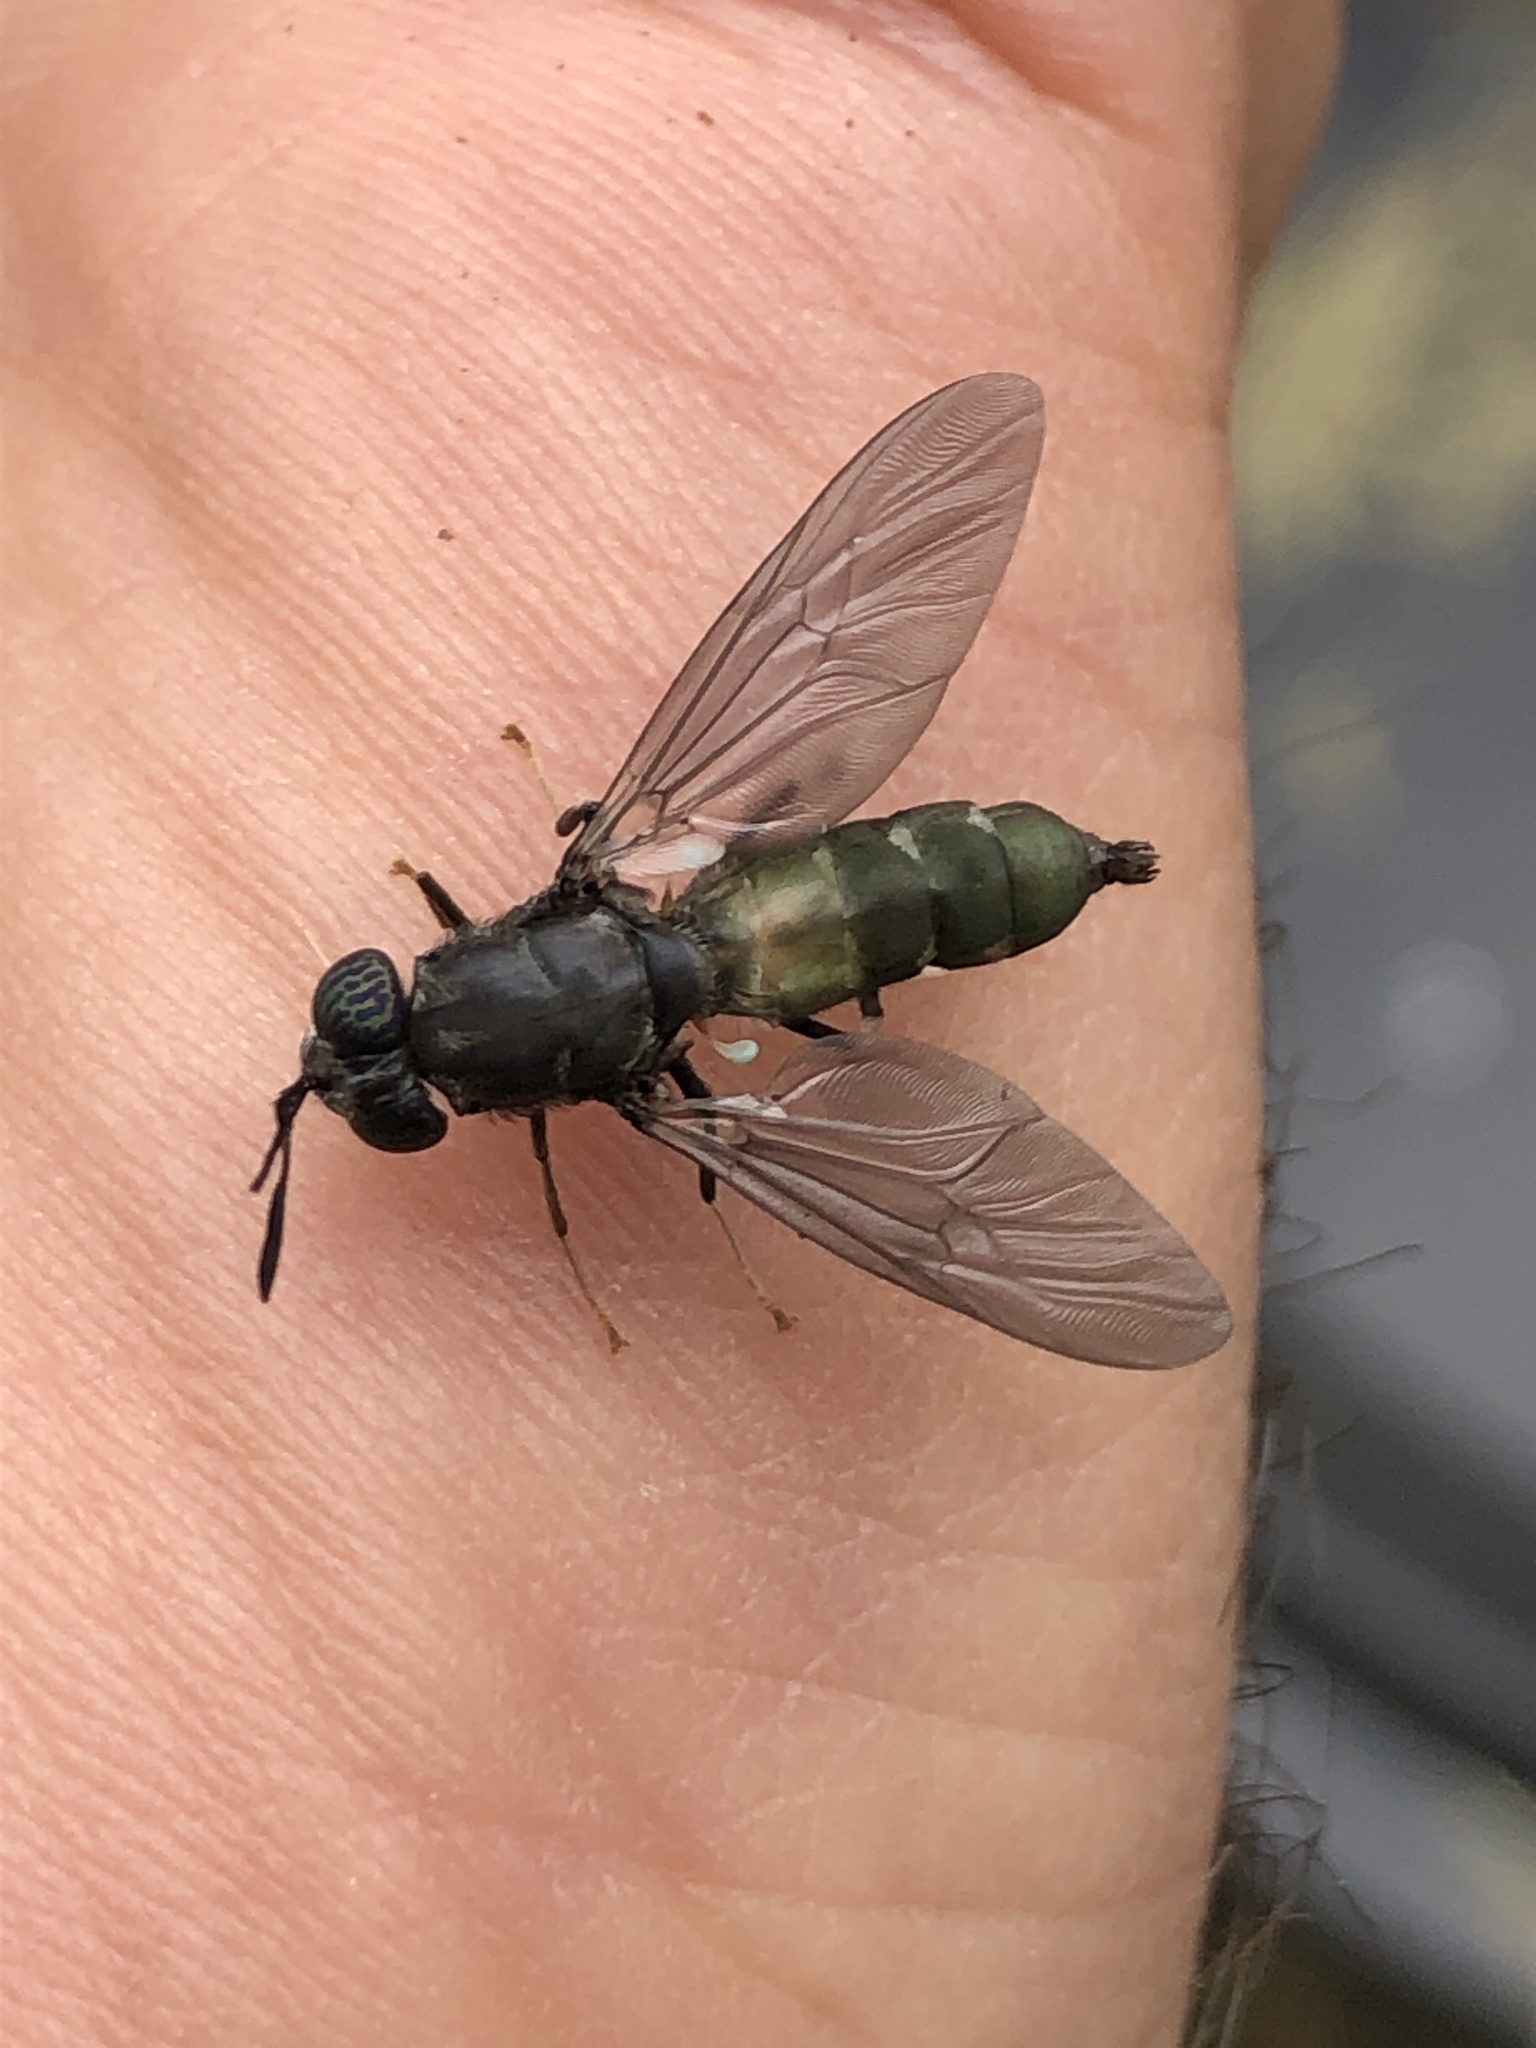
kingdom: Animalia
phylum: Arthropoda
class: Insecta
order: Diptera
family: Stratiomyidae
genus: Hermetia
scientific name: Hermetia illucens
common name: Black soldier fly
